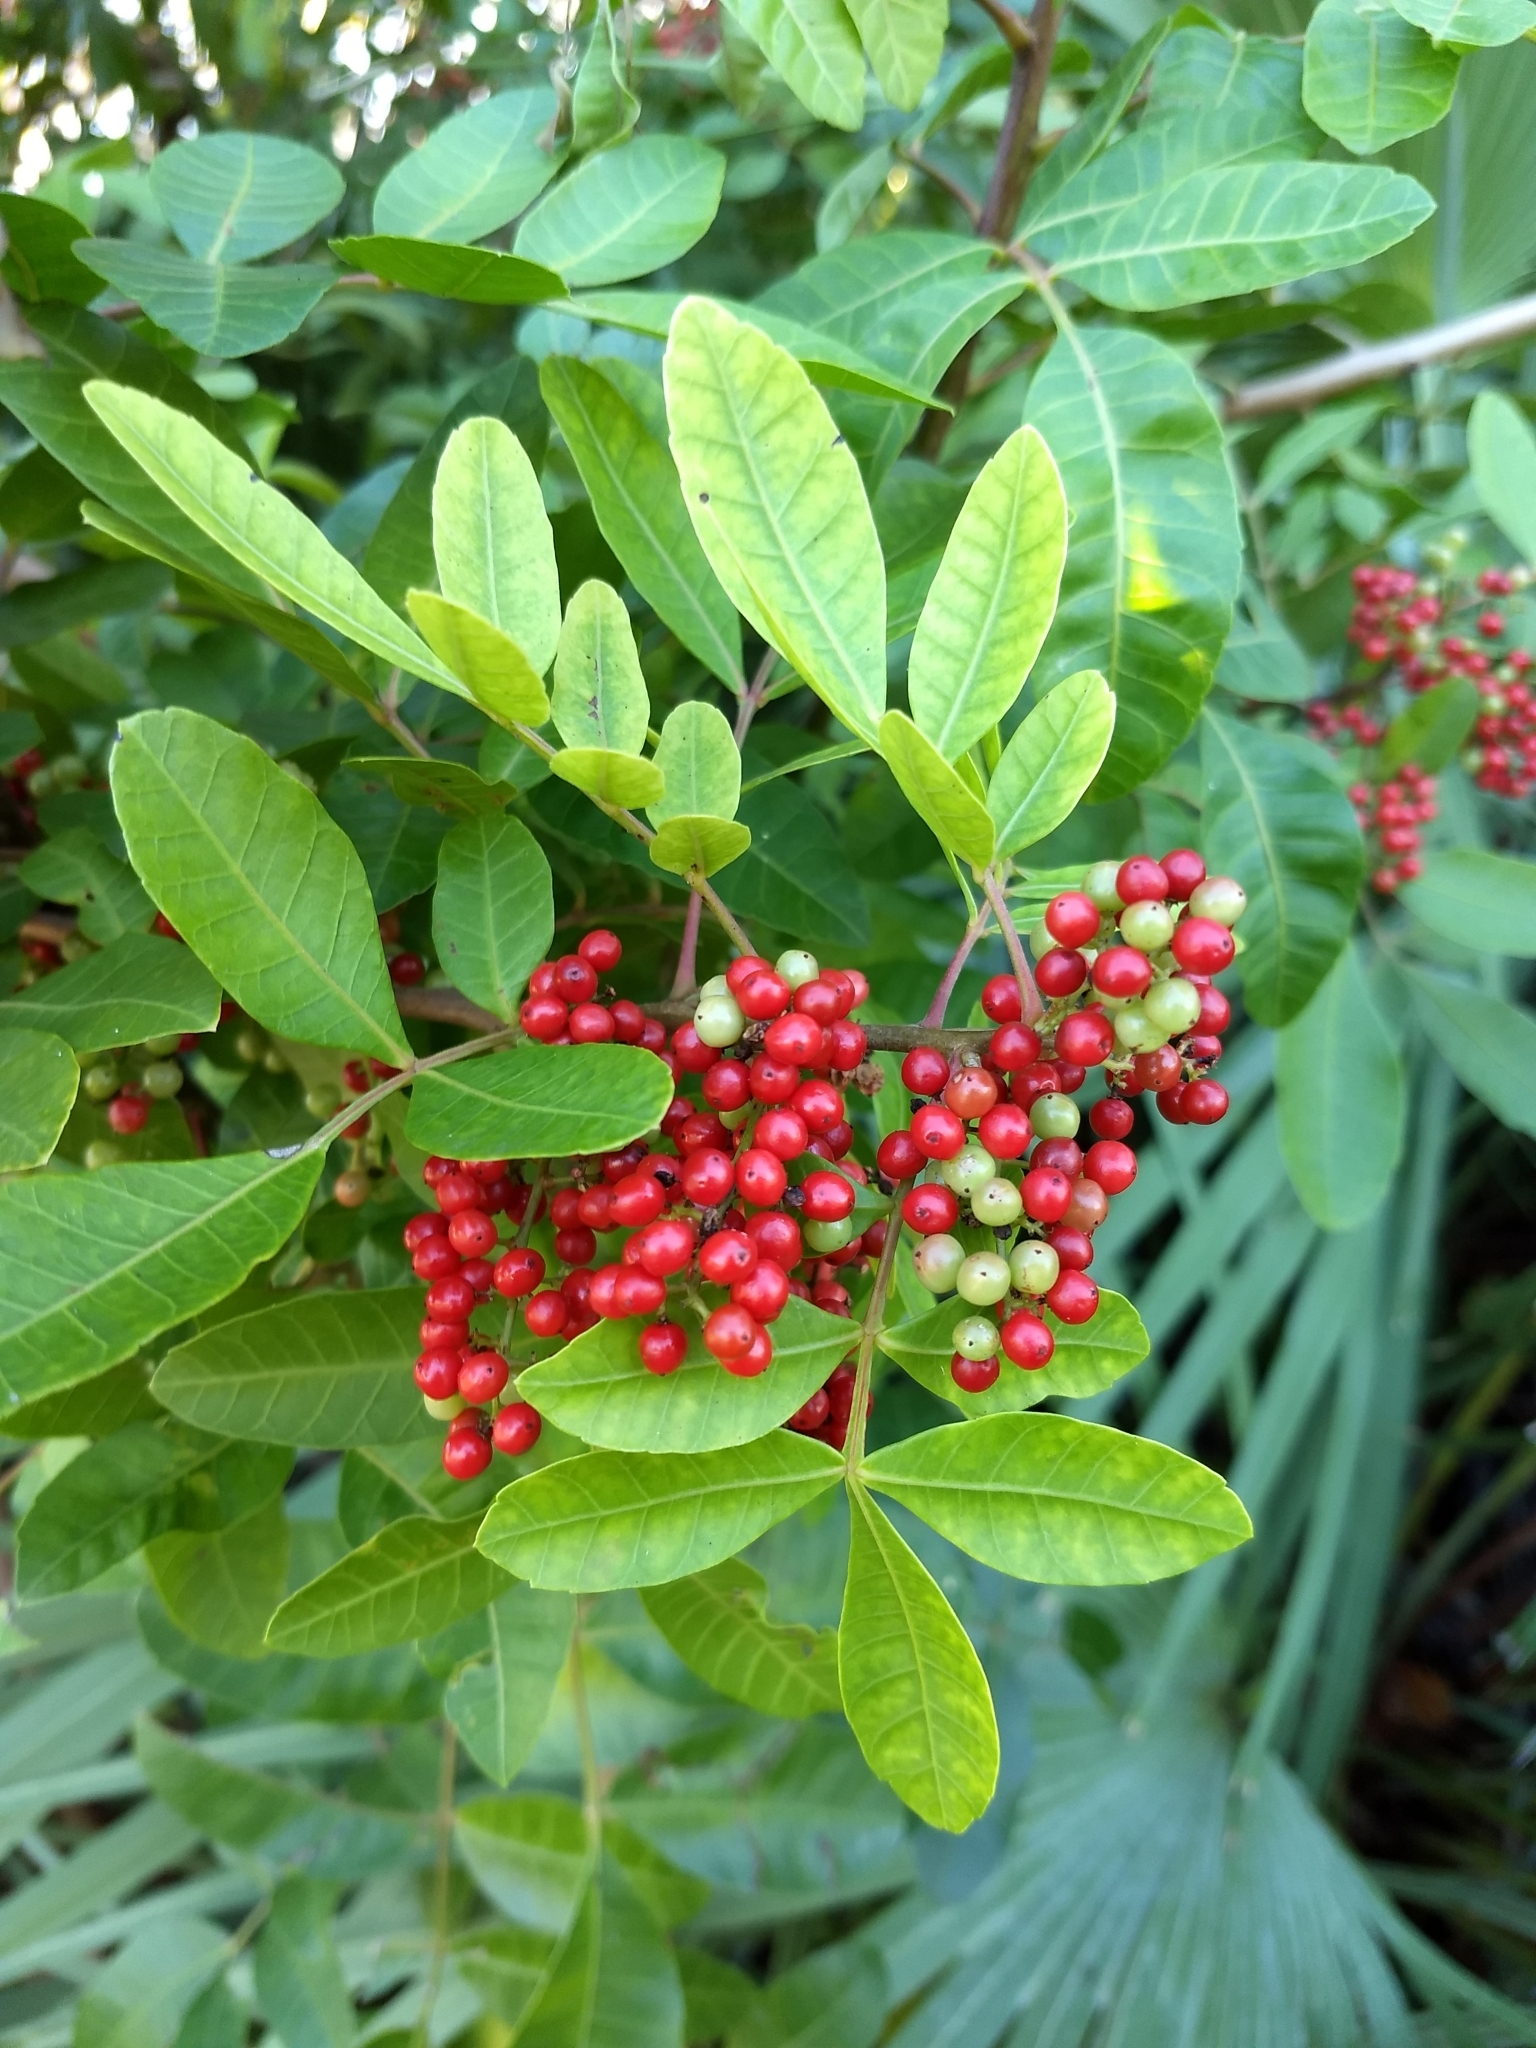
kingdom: Plantae
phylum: Tracheophyta
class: Magnoliopsida
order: Sapindales
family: Anacardiaceae
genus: Schinus
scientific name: Schinus terebinthifolia
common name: Brazilian peppertree
